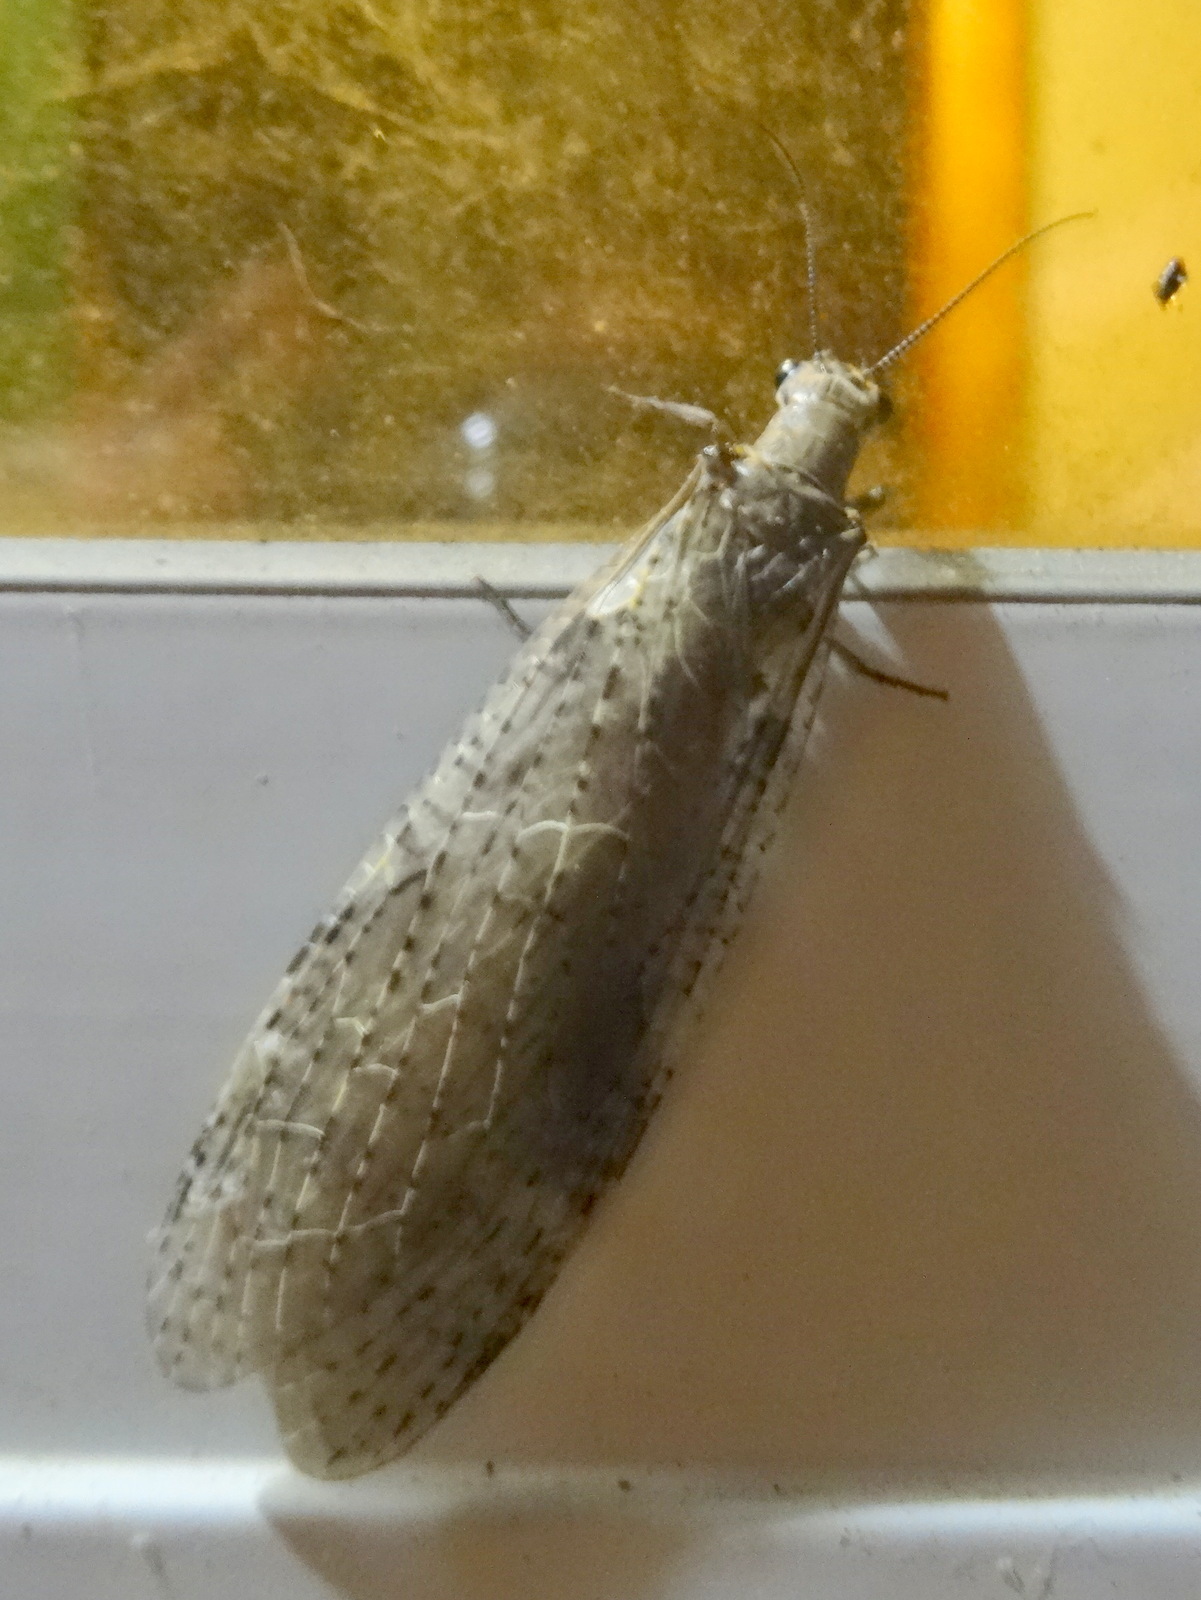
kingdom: Animalia
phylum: Arthropoda
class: Insecta
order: Megaloptera
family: Corydalidae
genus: Chauliodes
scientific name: Chauliodes rastricornis
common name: Spring fishfly
